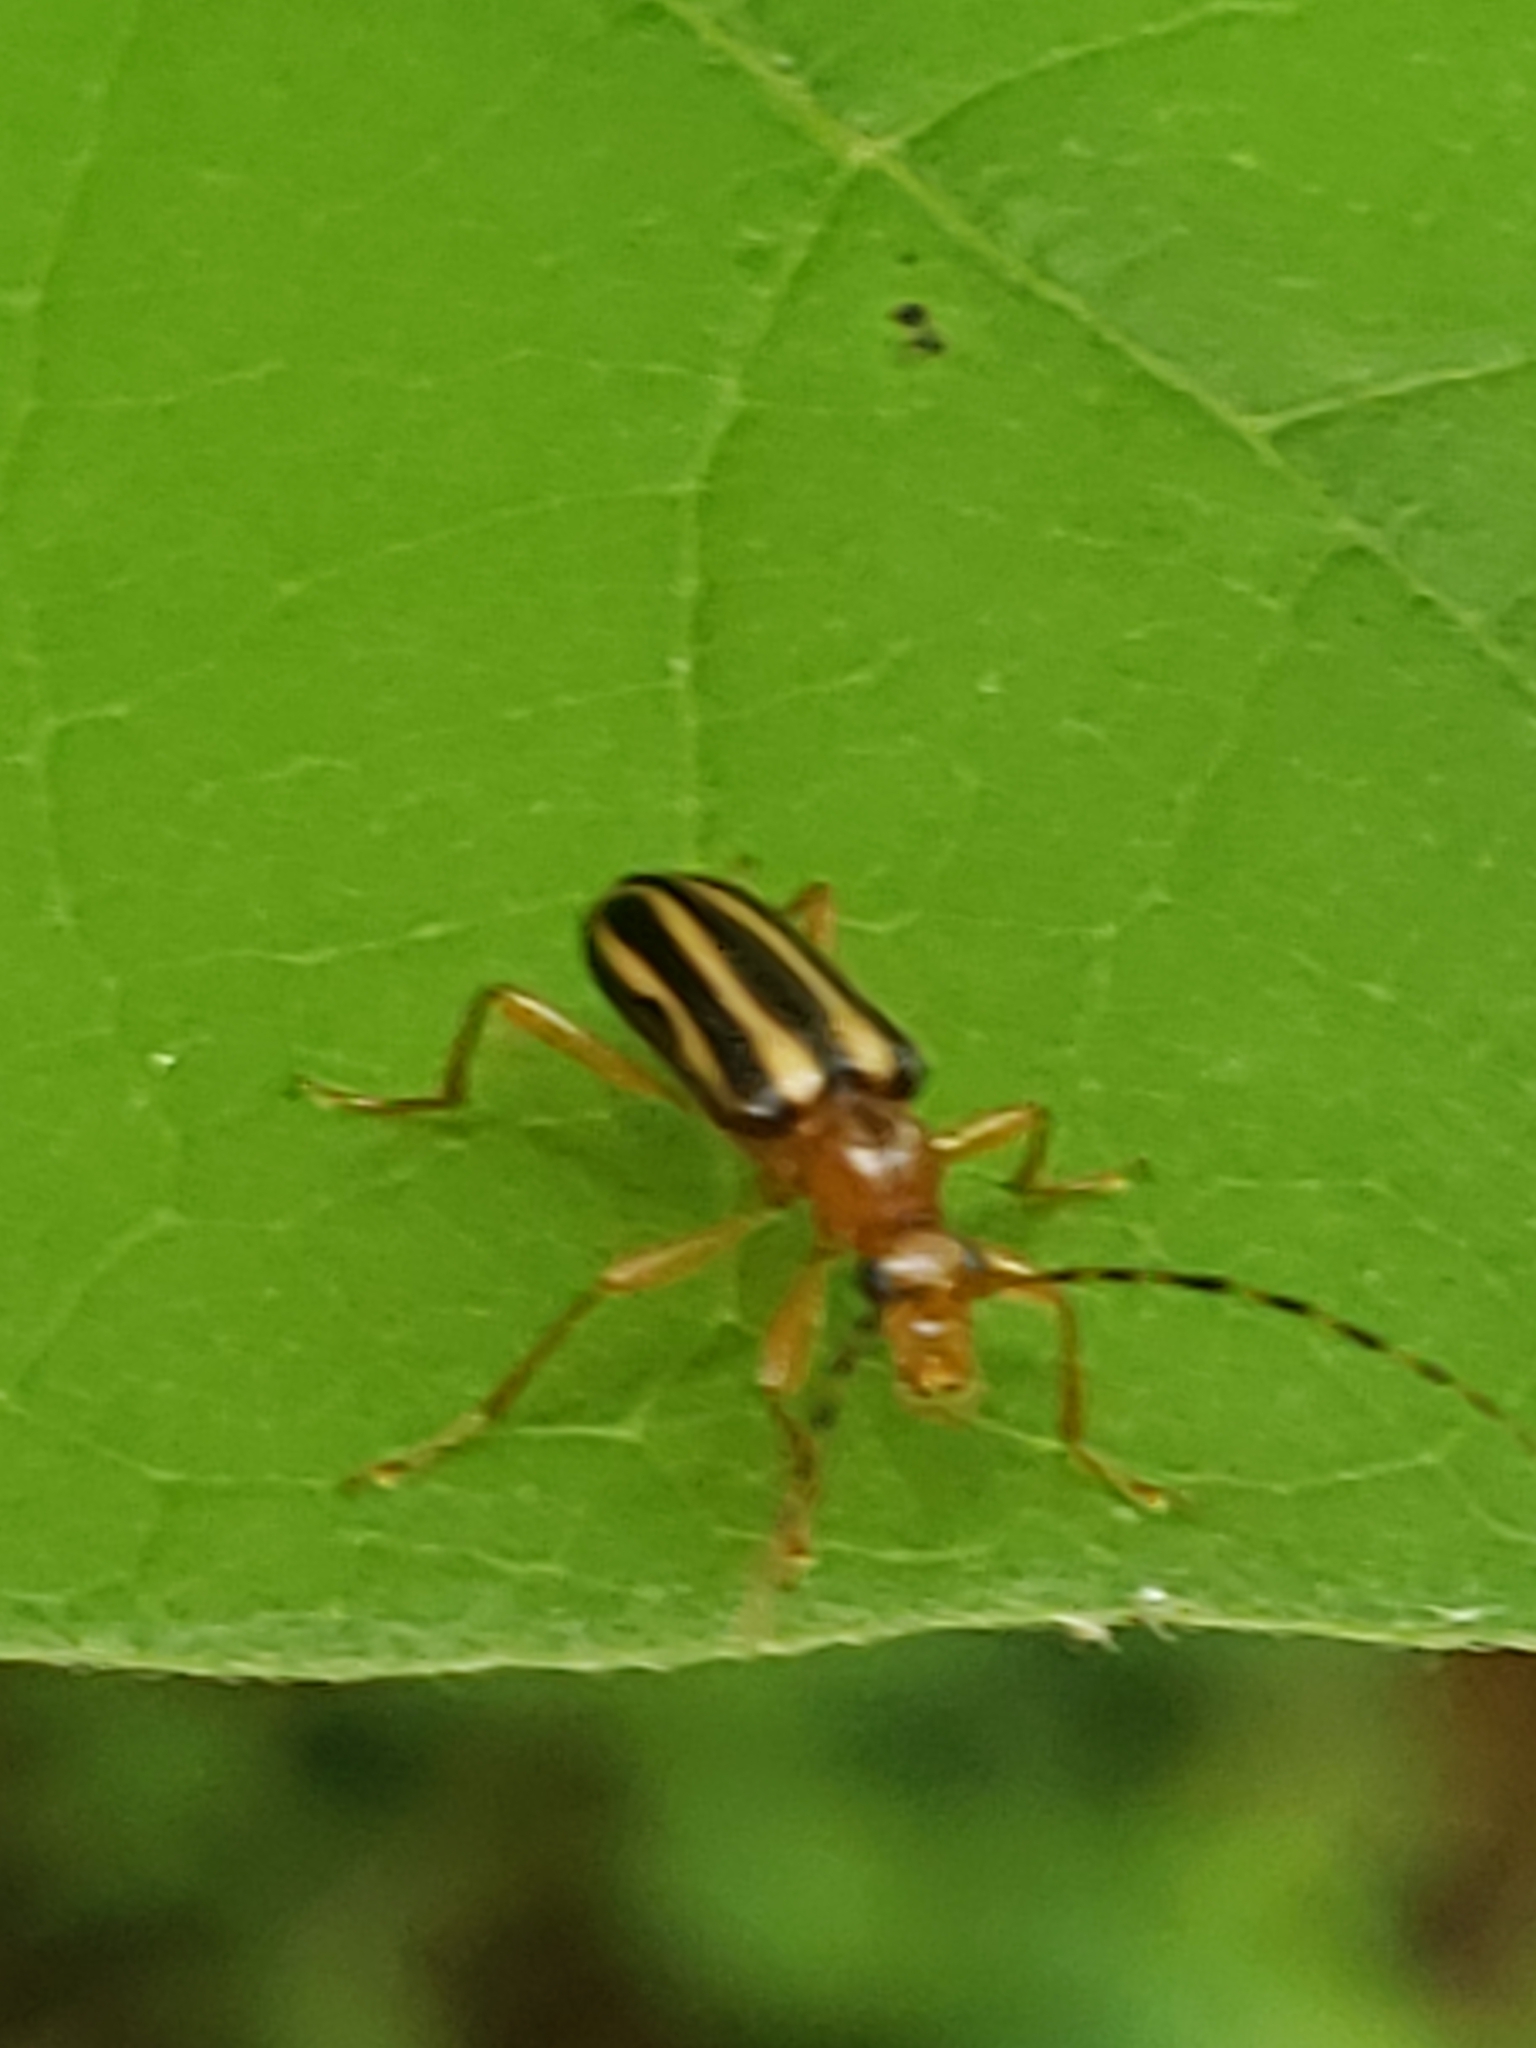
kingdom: Animalia
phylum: Arthropoda
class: Insecta
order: Coleoptera
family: Cerambycidae
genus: Metacmaeops
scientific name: Metacmaeops vittata
